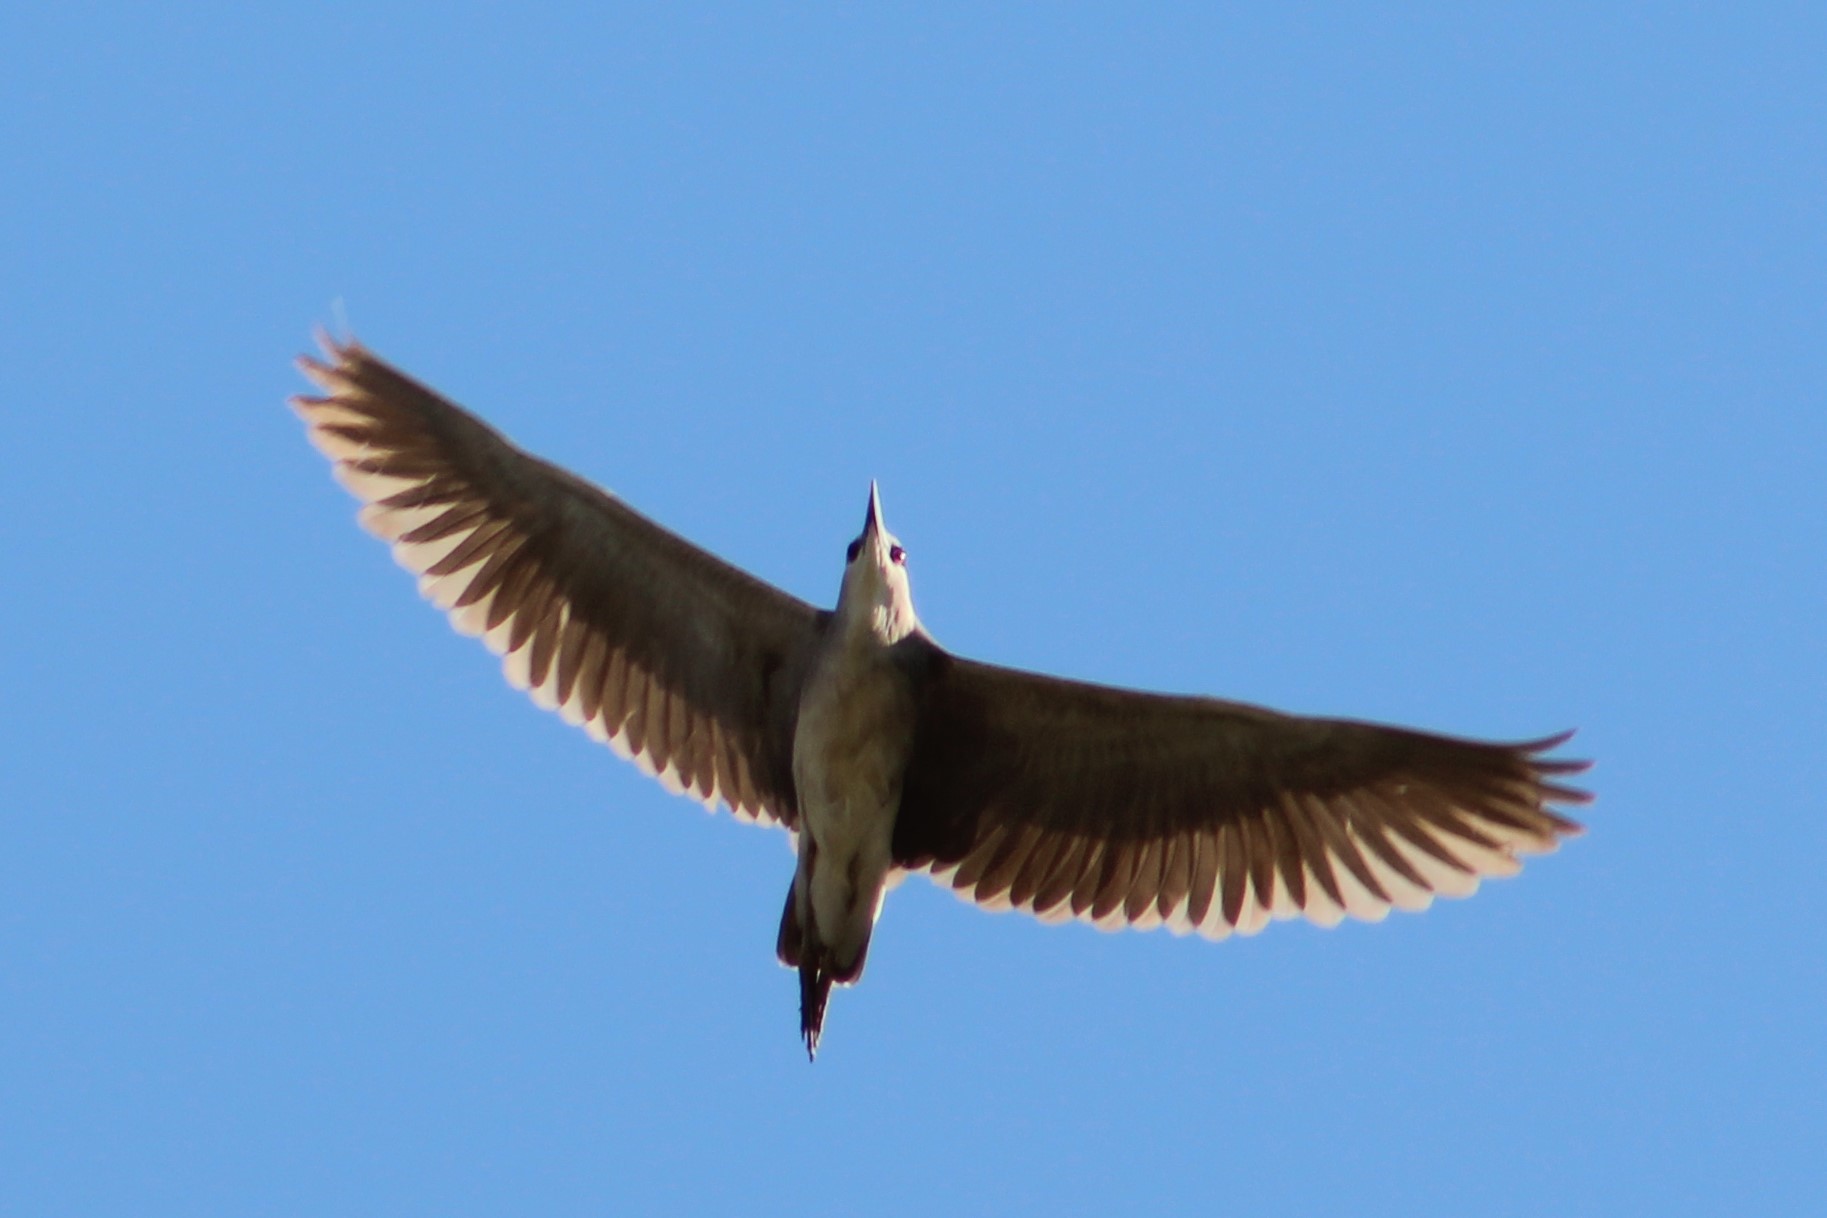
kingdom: Animalia
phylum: Chordata
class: Aves
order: Pelecaniformes
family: Ardeidae
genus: Nycticorax
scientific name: Nycticorax nycticorax
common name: Black-crowned night heron
